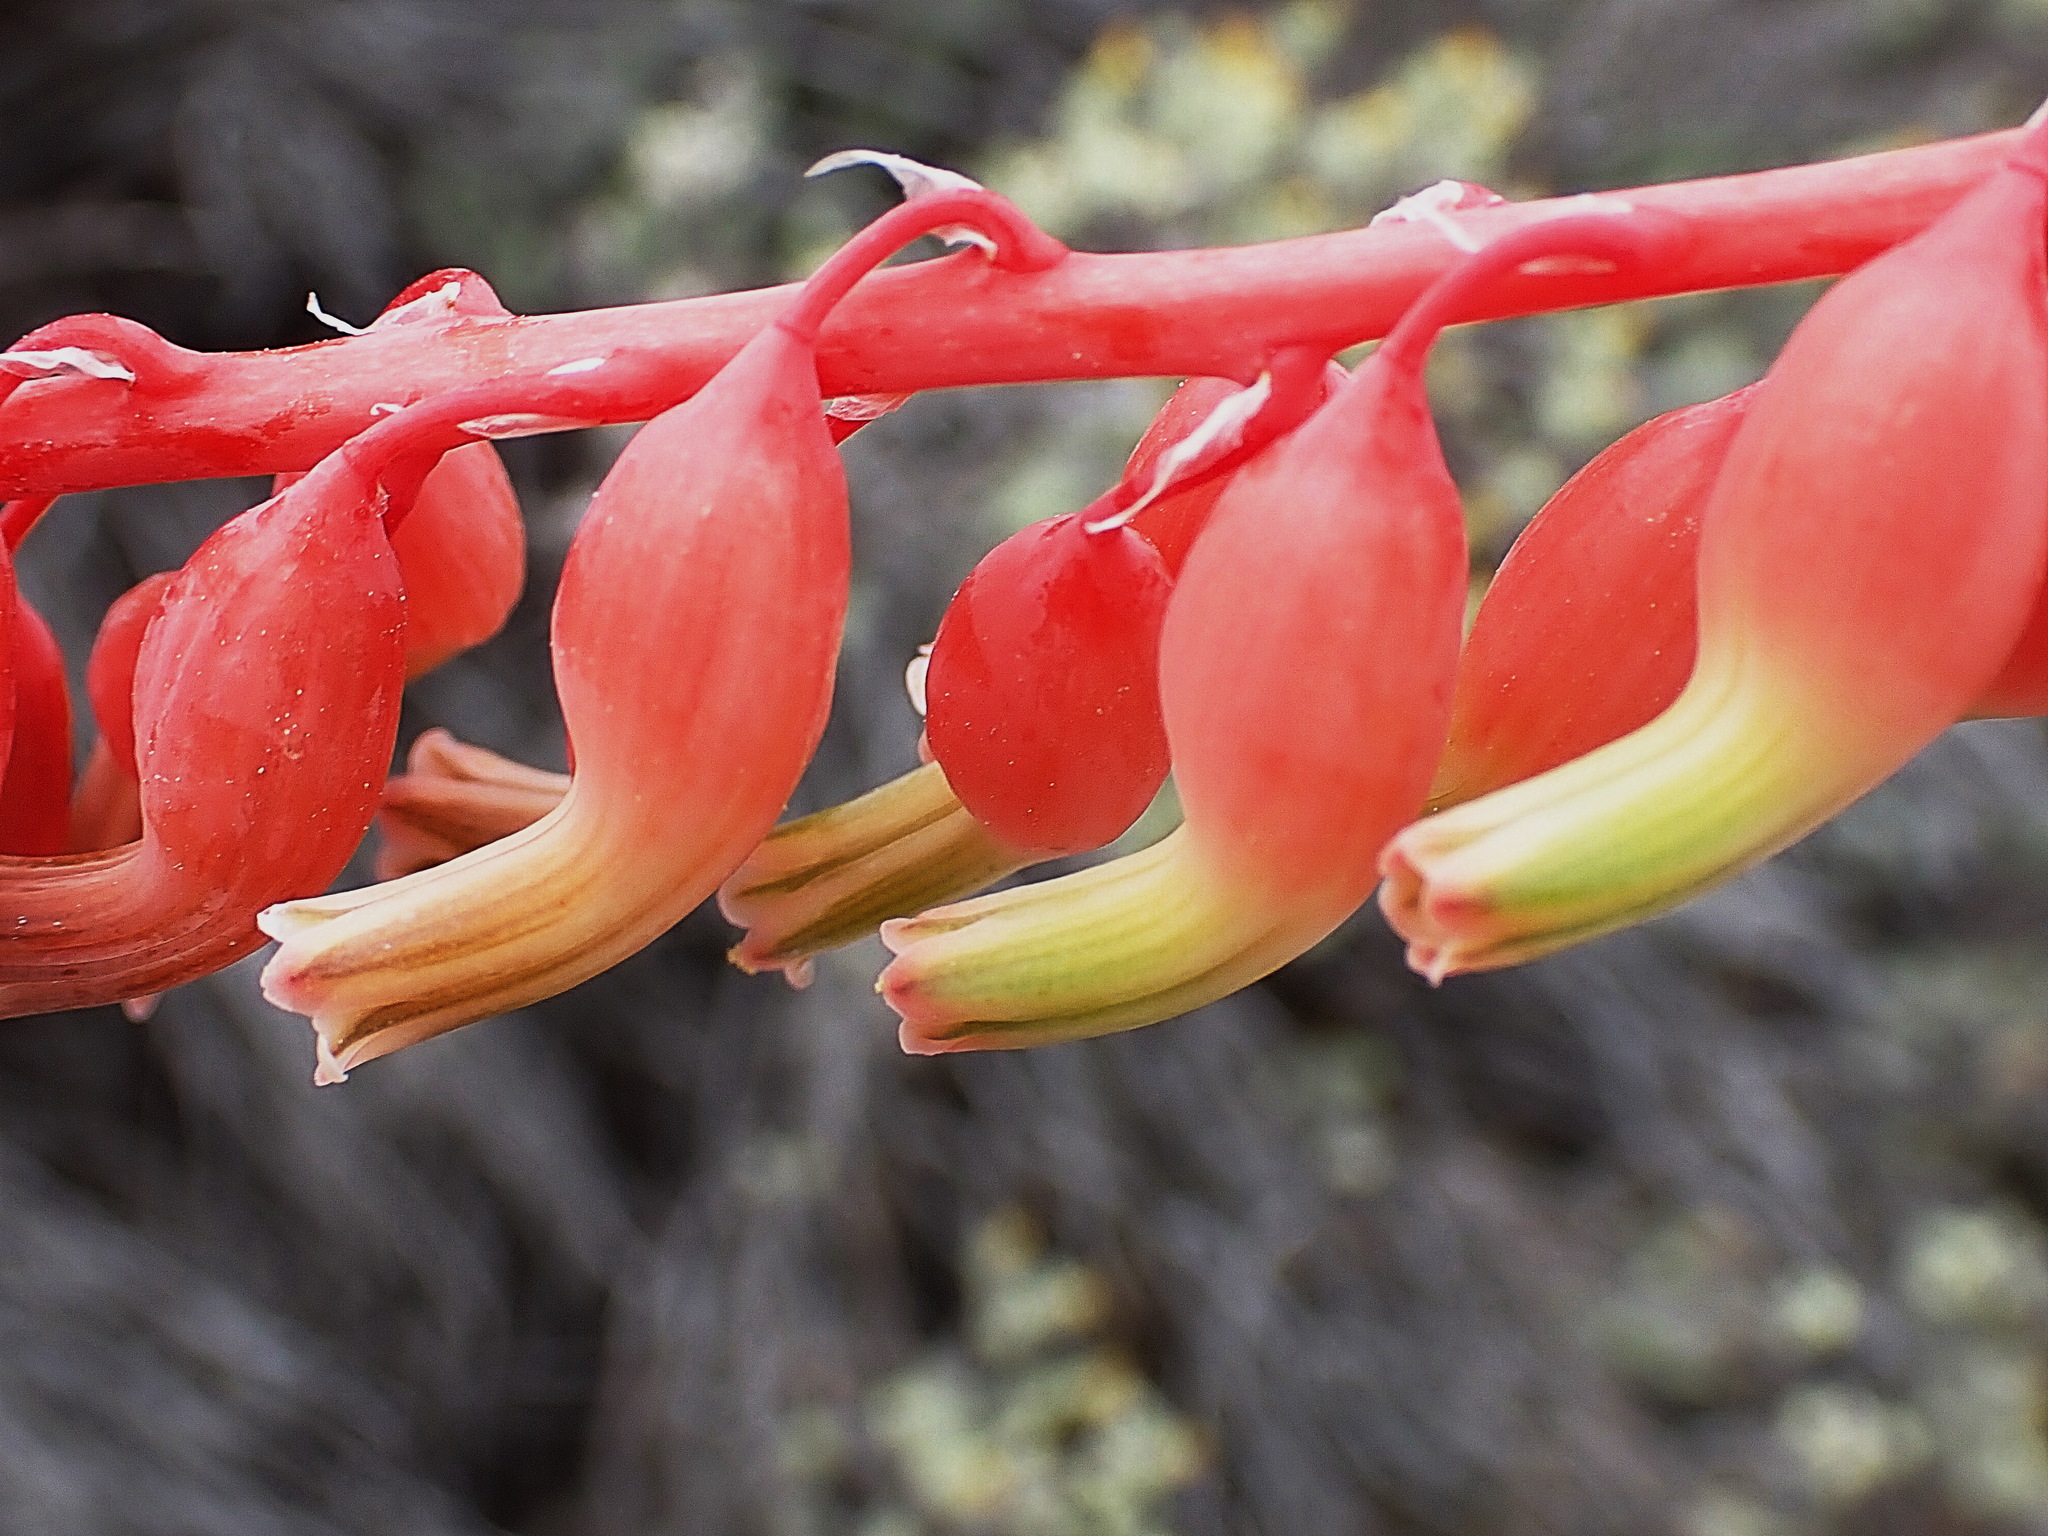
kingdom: Plantae
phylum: Tracheophyta
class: Liliopsida
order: Asparagales
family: Asphodelaceae
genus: Gasteria
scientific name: Gasteria brachyphylla
